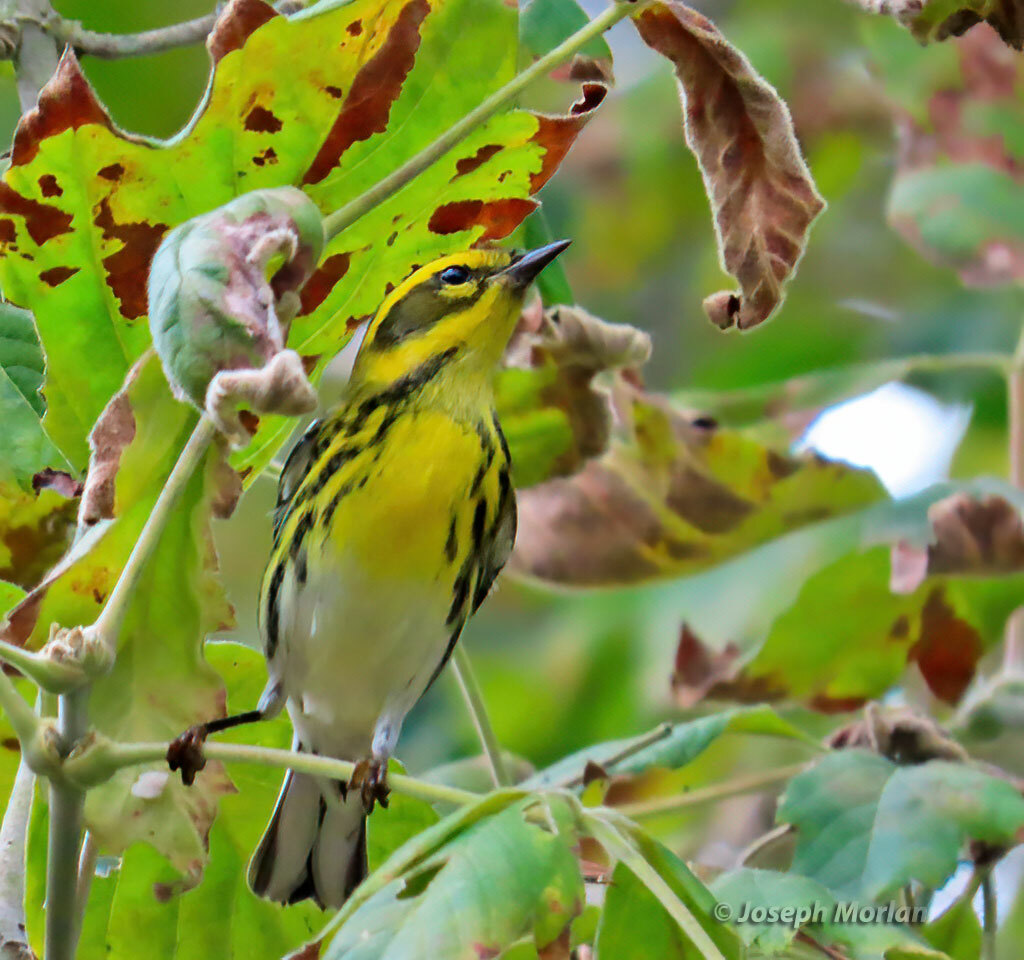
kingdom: Animalia
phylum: Chordata
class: Aves
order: Passeriformes
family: Parulidae
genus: Setophaga
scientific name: Setophaga townsendi
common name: Townsend's warbler
